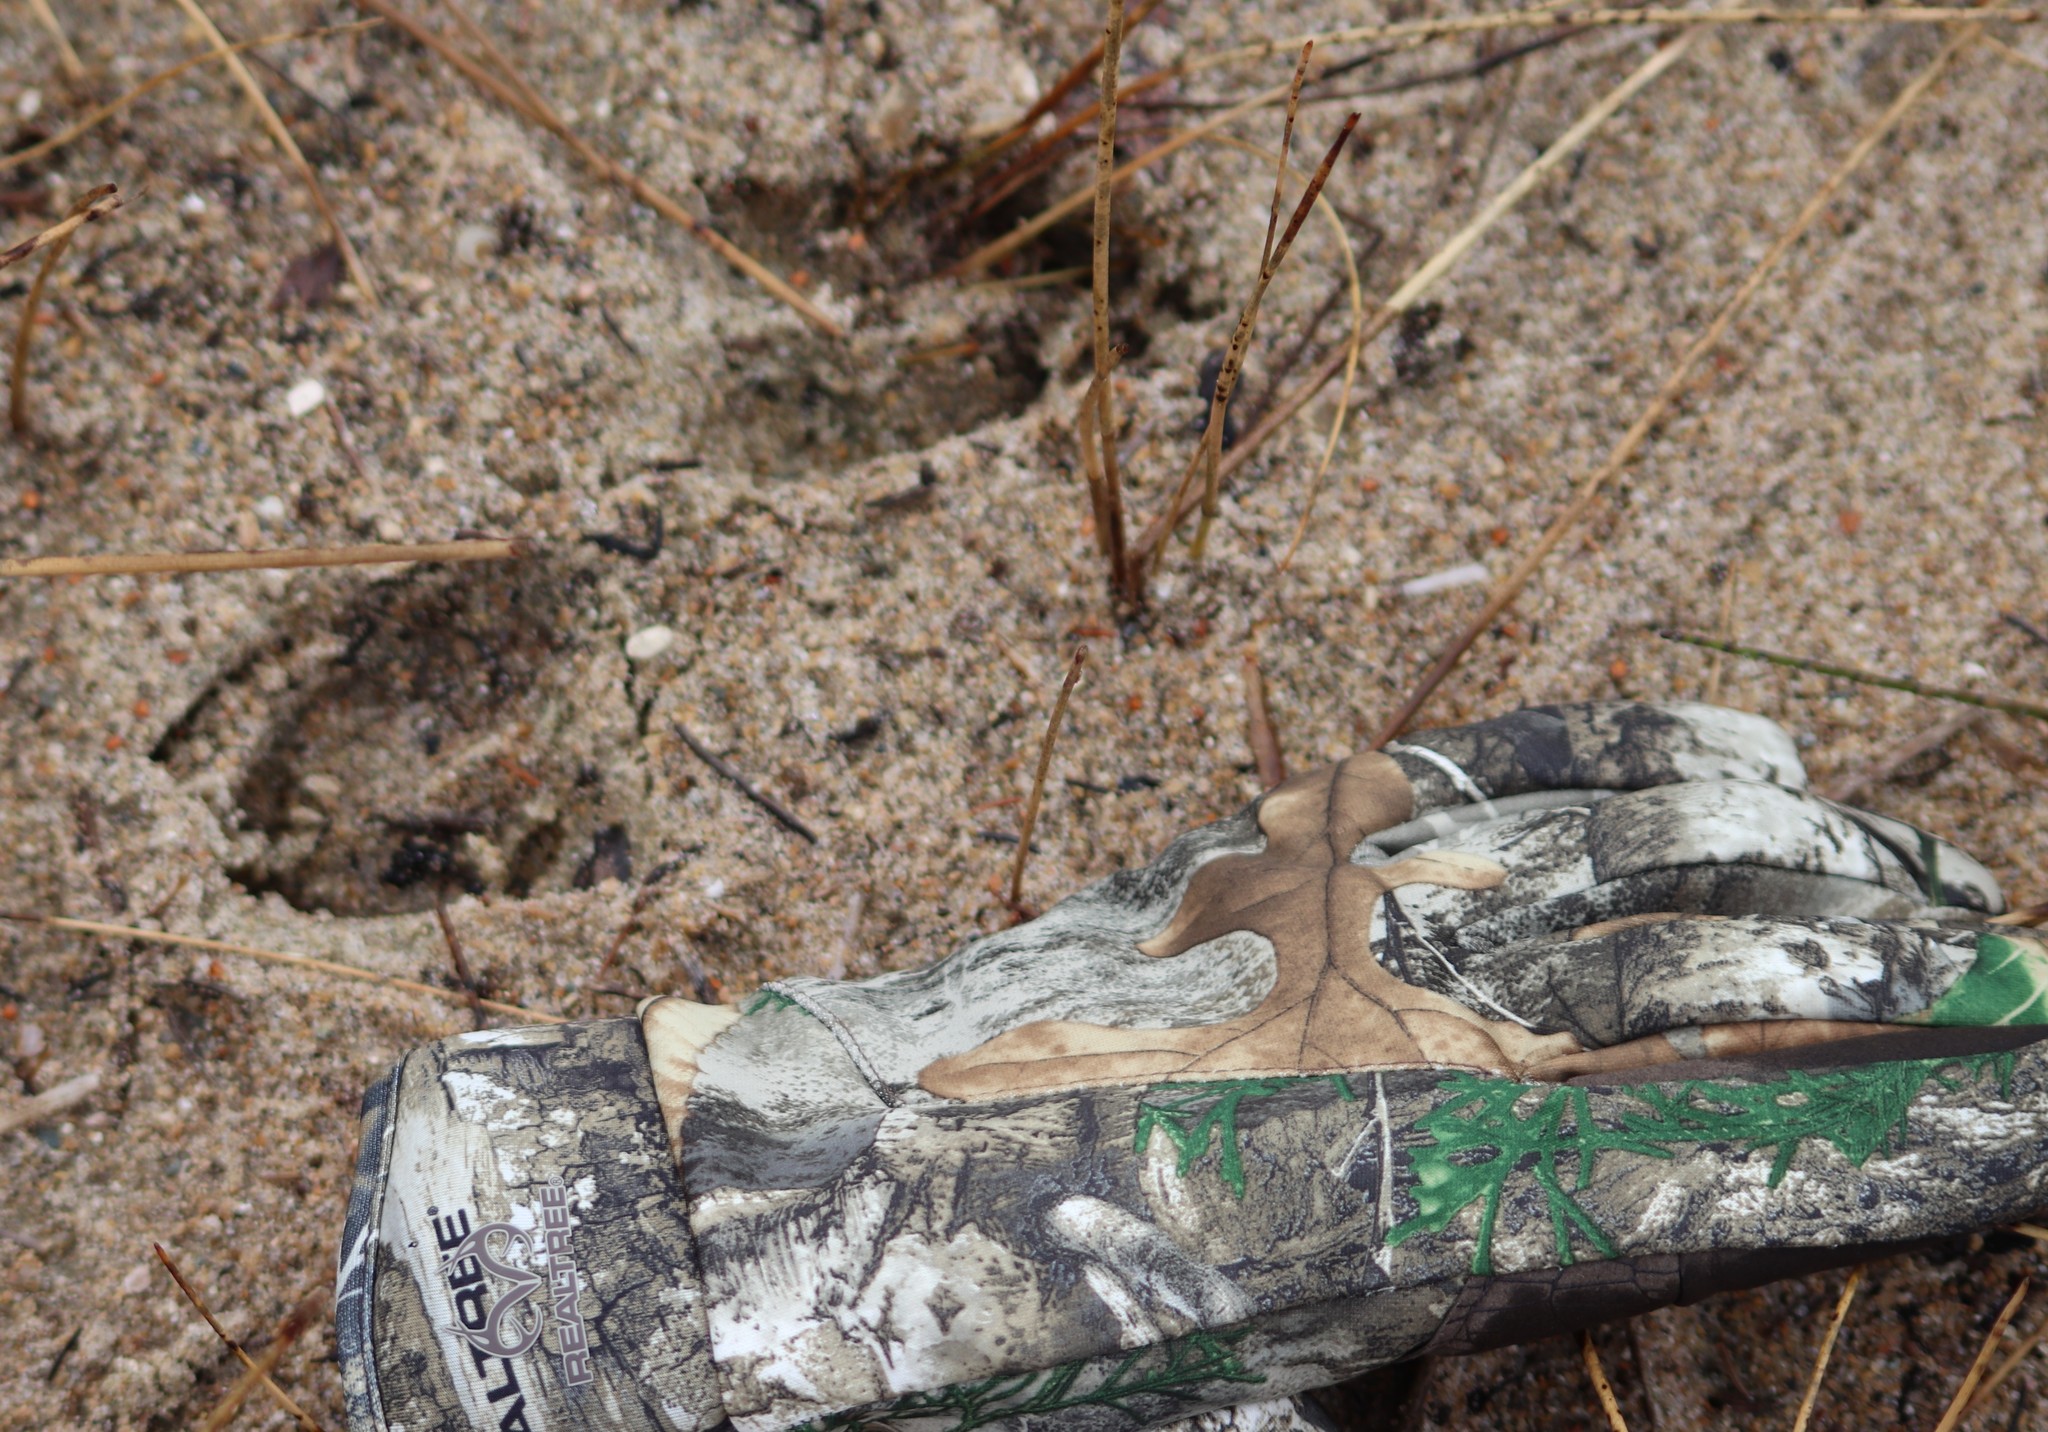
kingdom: Animalia
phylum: Chordata
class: Mammalia
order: Artiodactyla
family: Cervidae
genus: Odocoileus
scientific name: Odocoileus virginianus
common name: White-tailed deer
